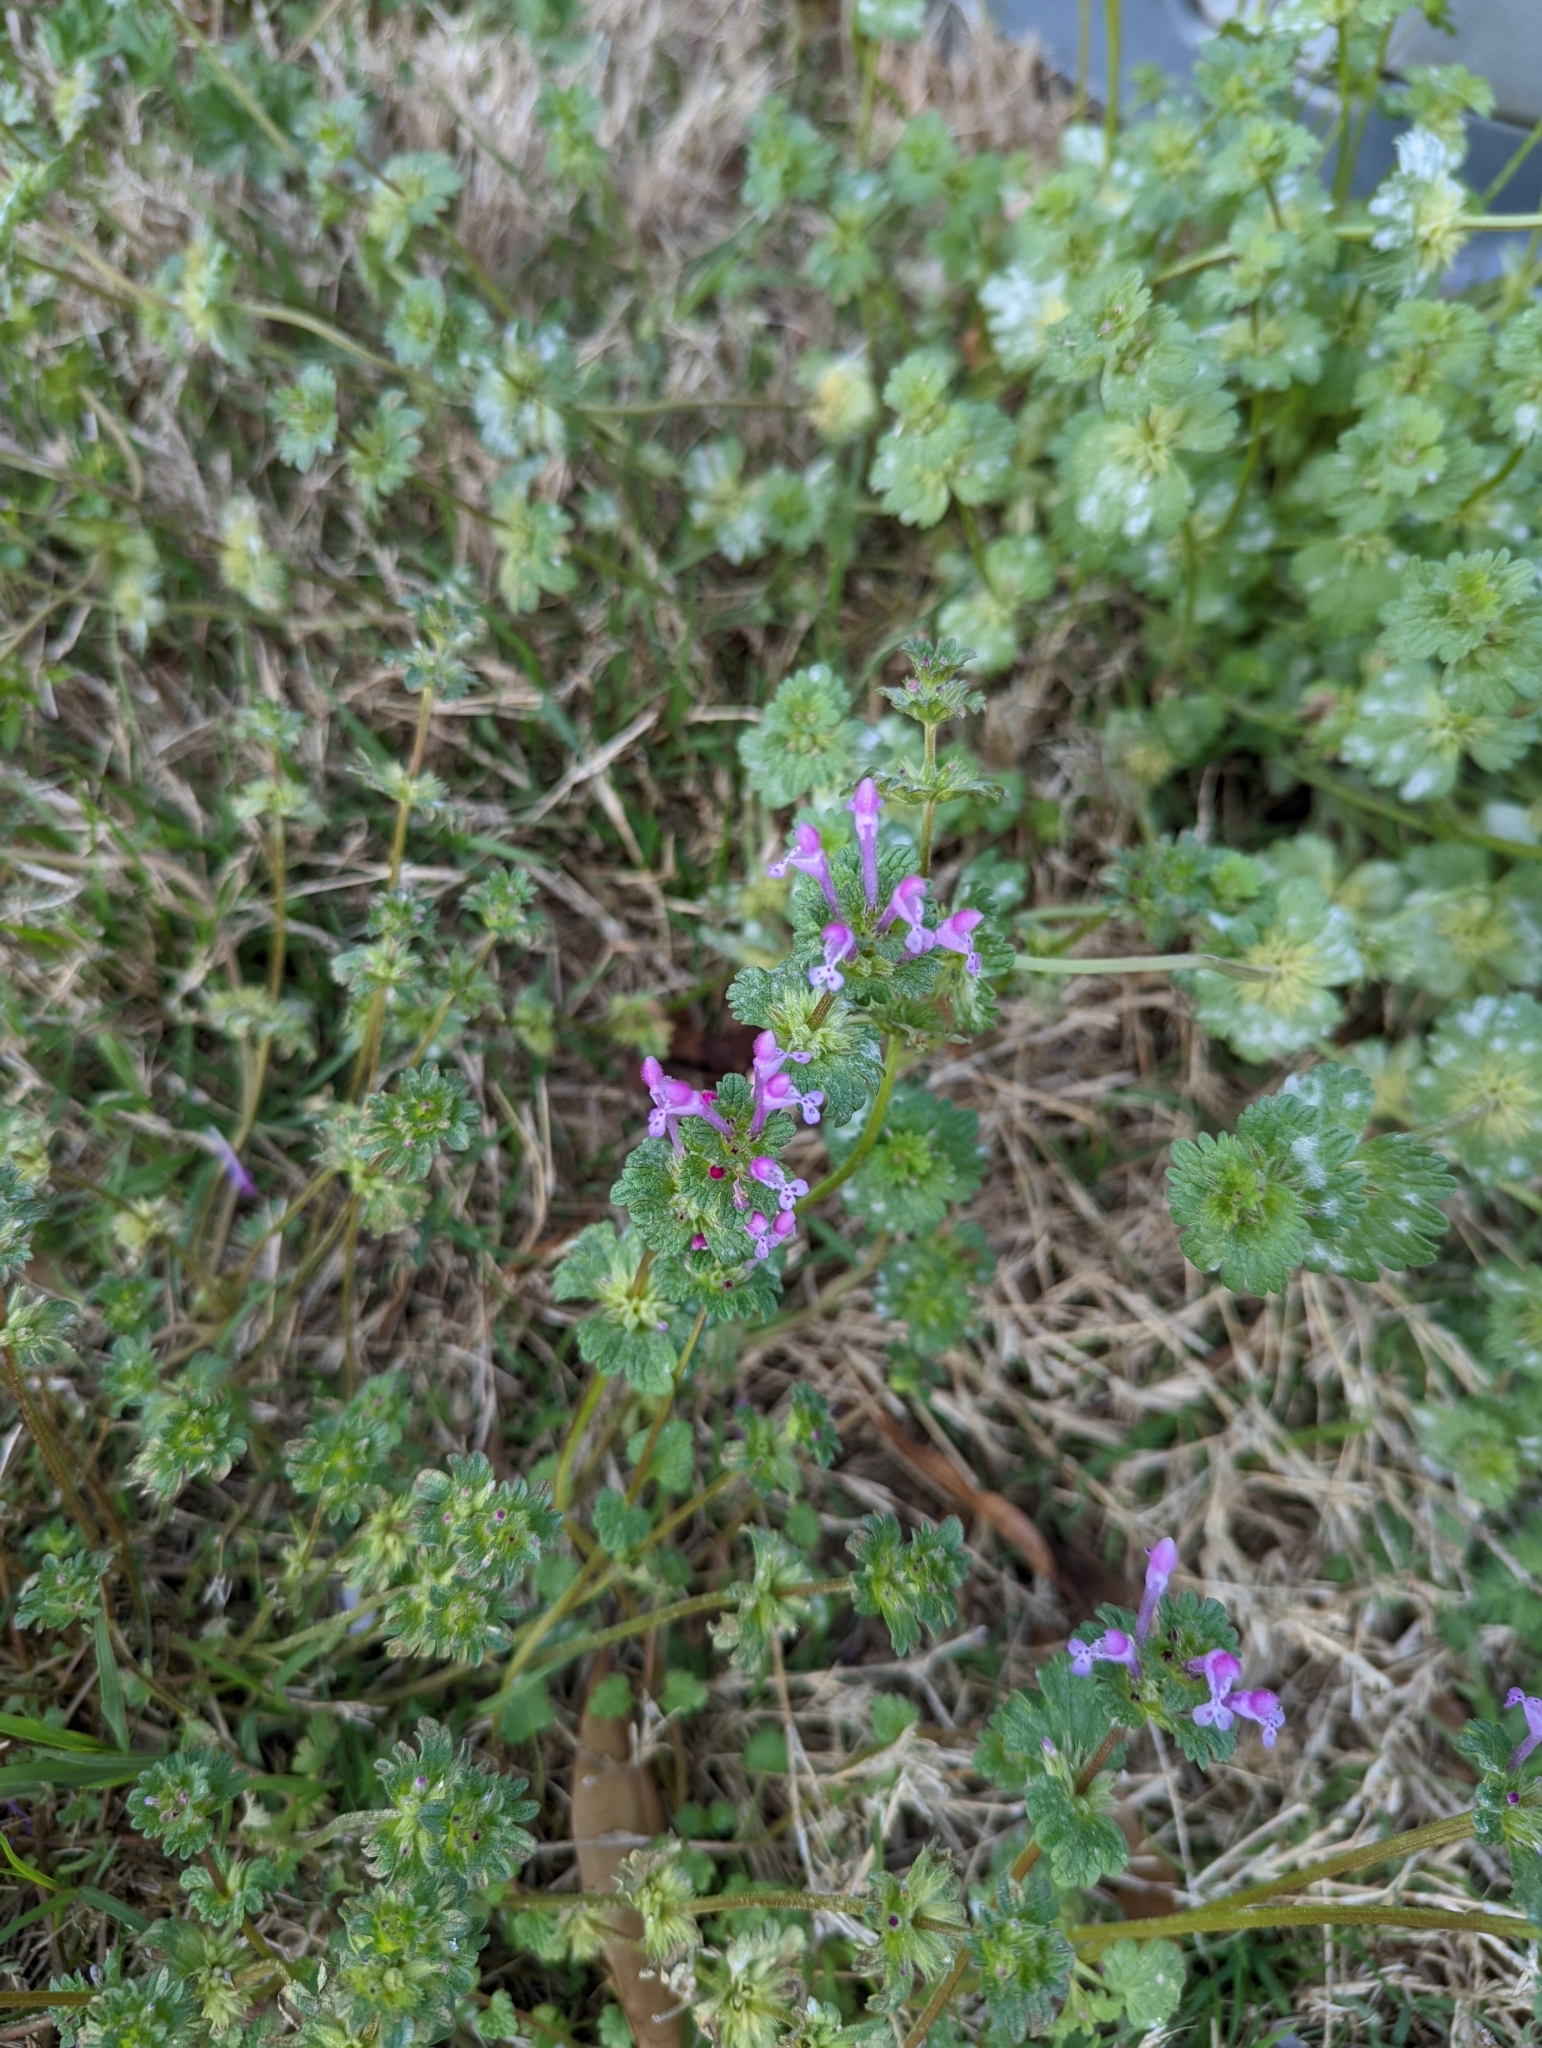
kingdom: Plantae
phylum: Tracheophyta
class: Magnoliopsida
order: Lamiales
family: Lamiaceae
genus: Lamium
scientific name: Lamium amplexicaule
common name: Henbit dead-nettle
